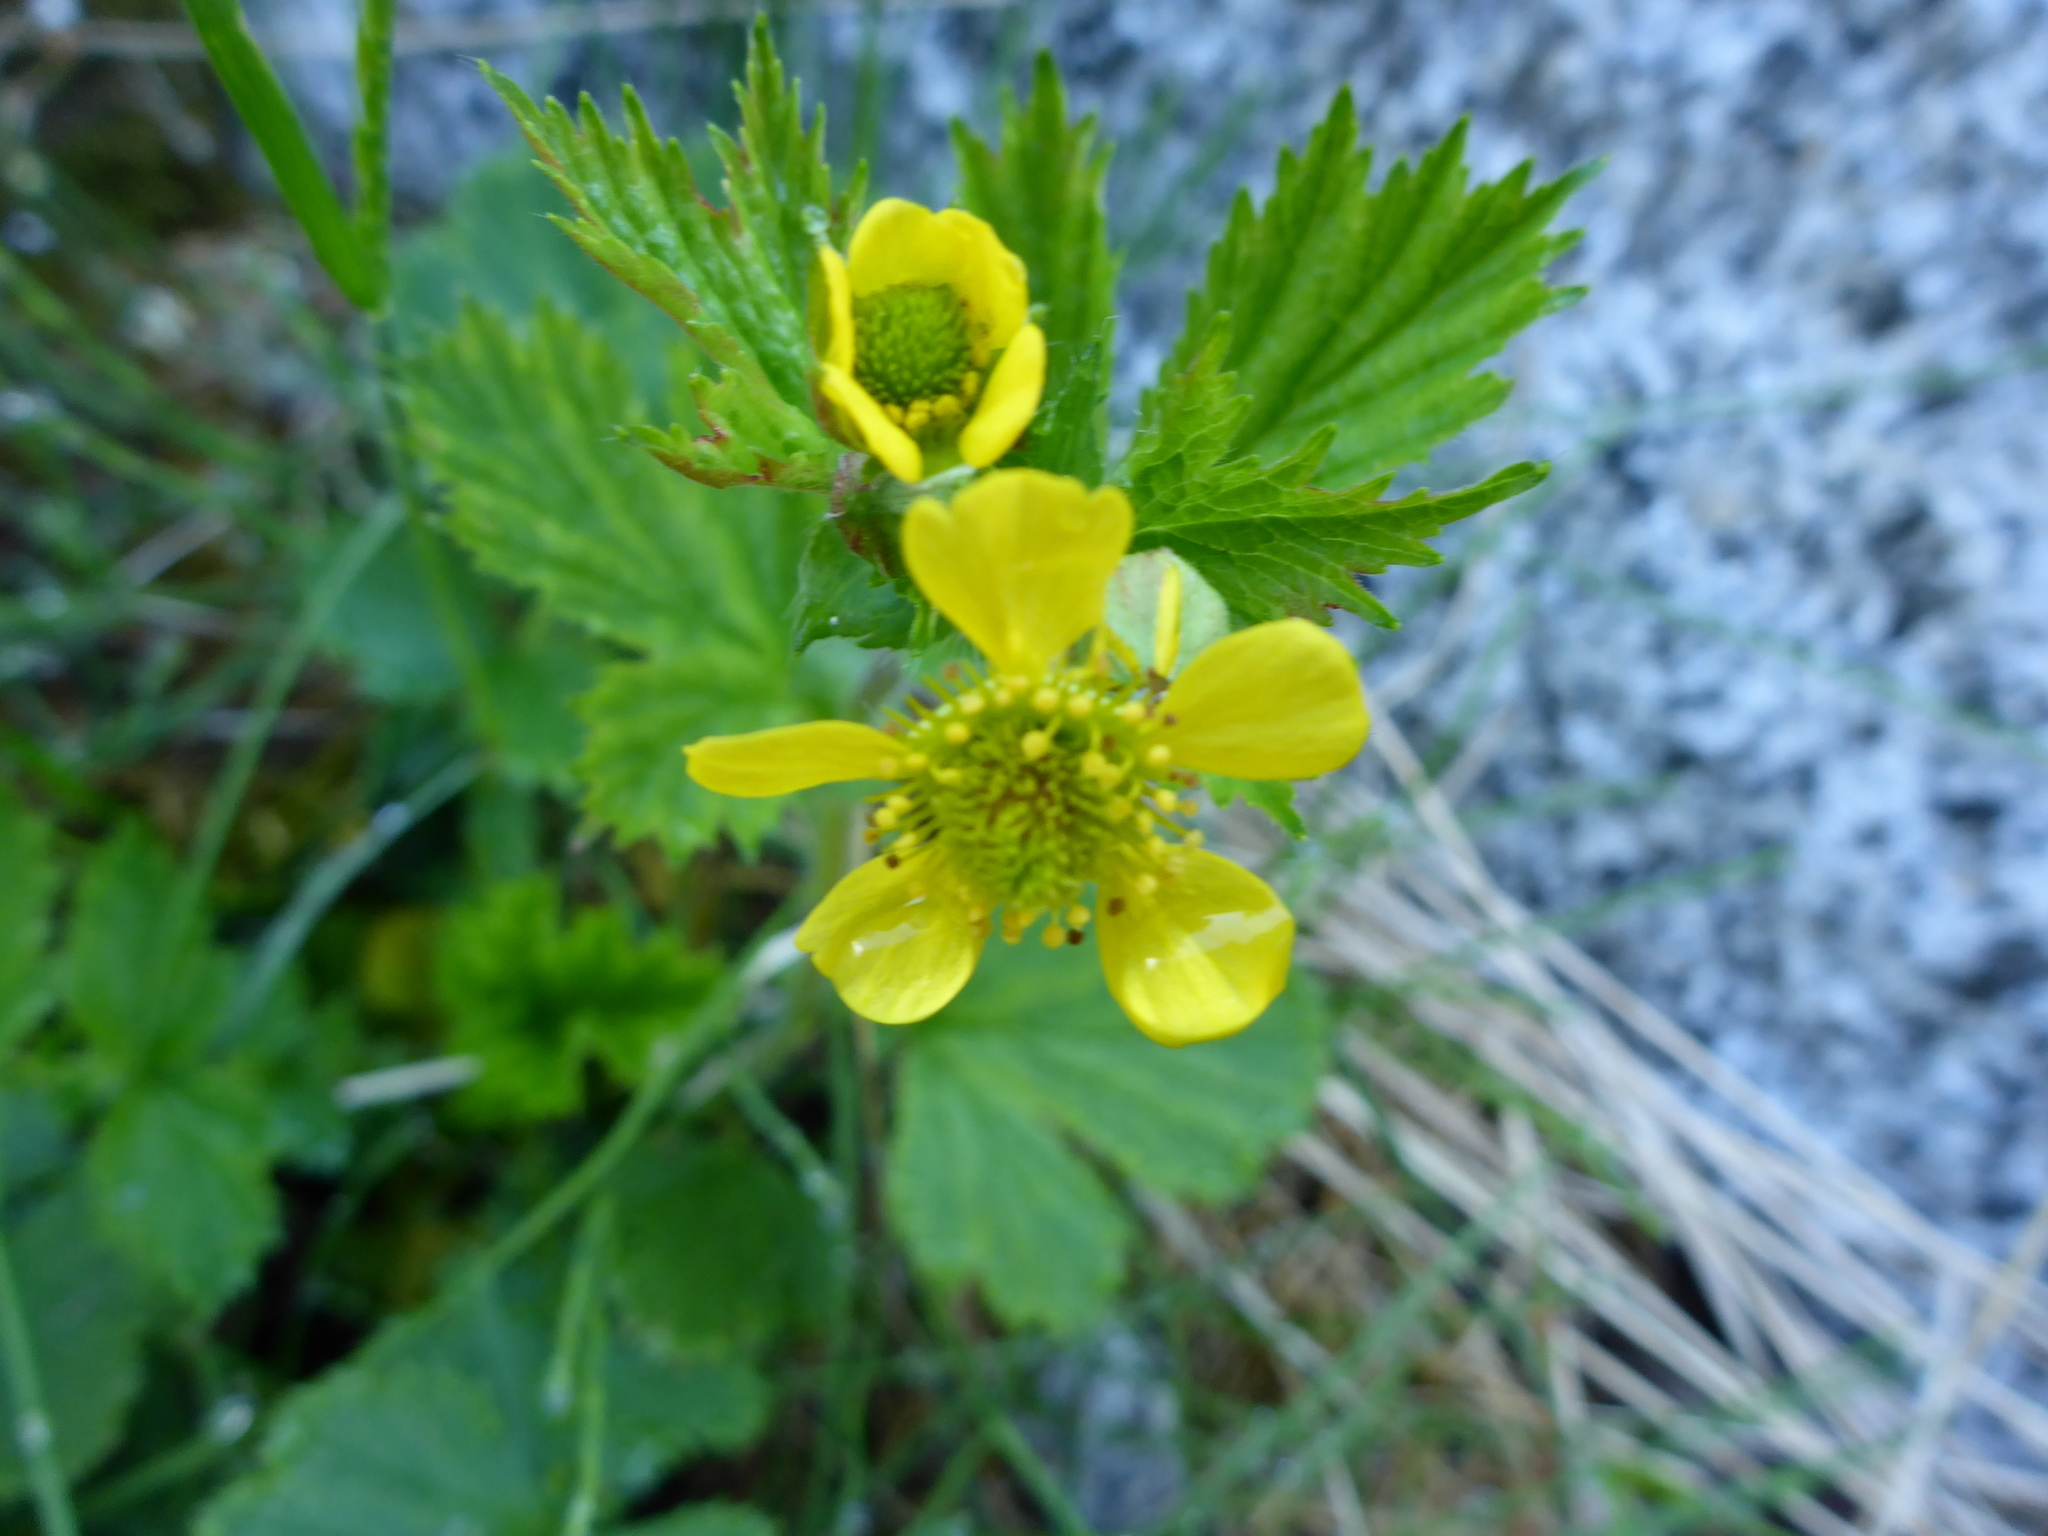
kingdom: Plantae
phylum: Tracheophyta
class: Magnoliopsida
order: Rosales
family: Rosaceae
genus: Geum
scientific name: Geum macrophyllum
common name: Large-leaved avens
